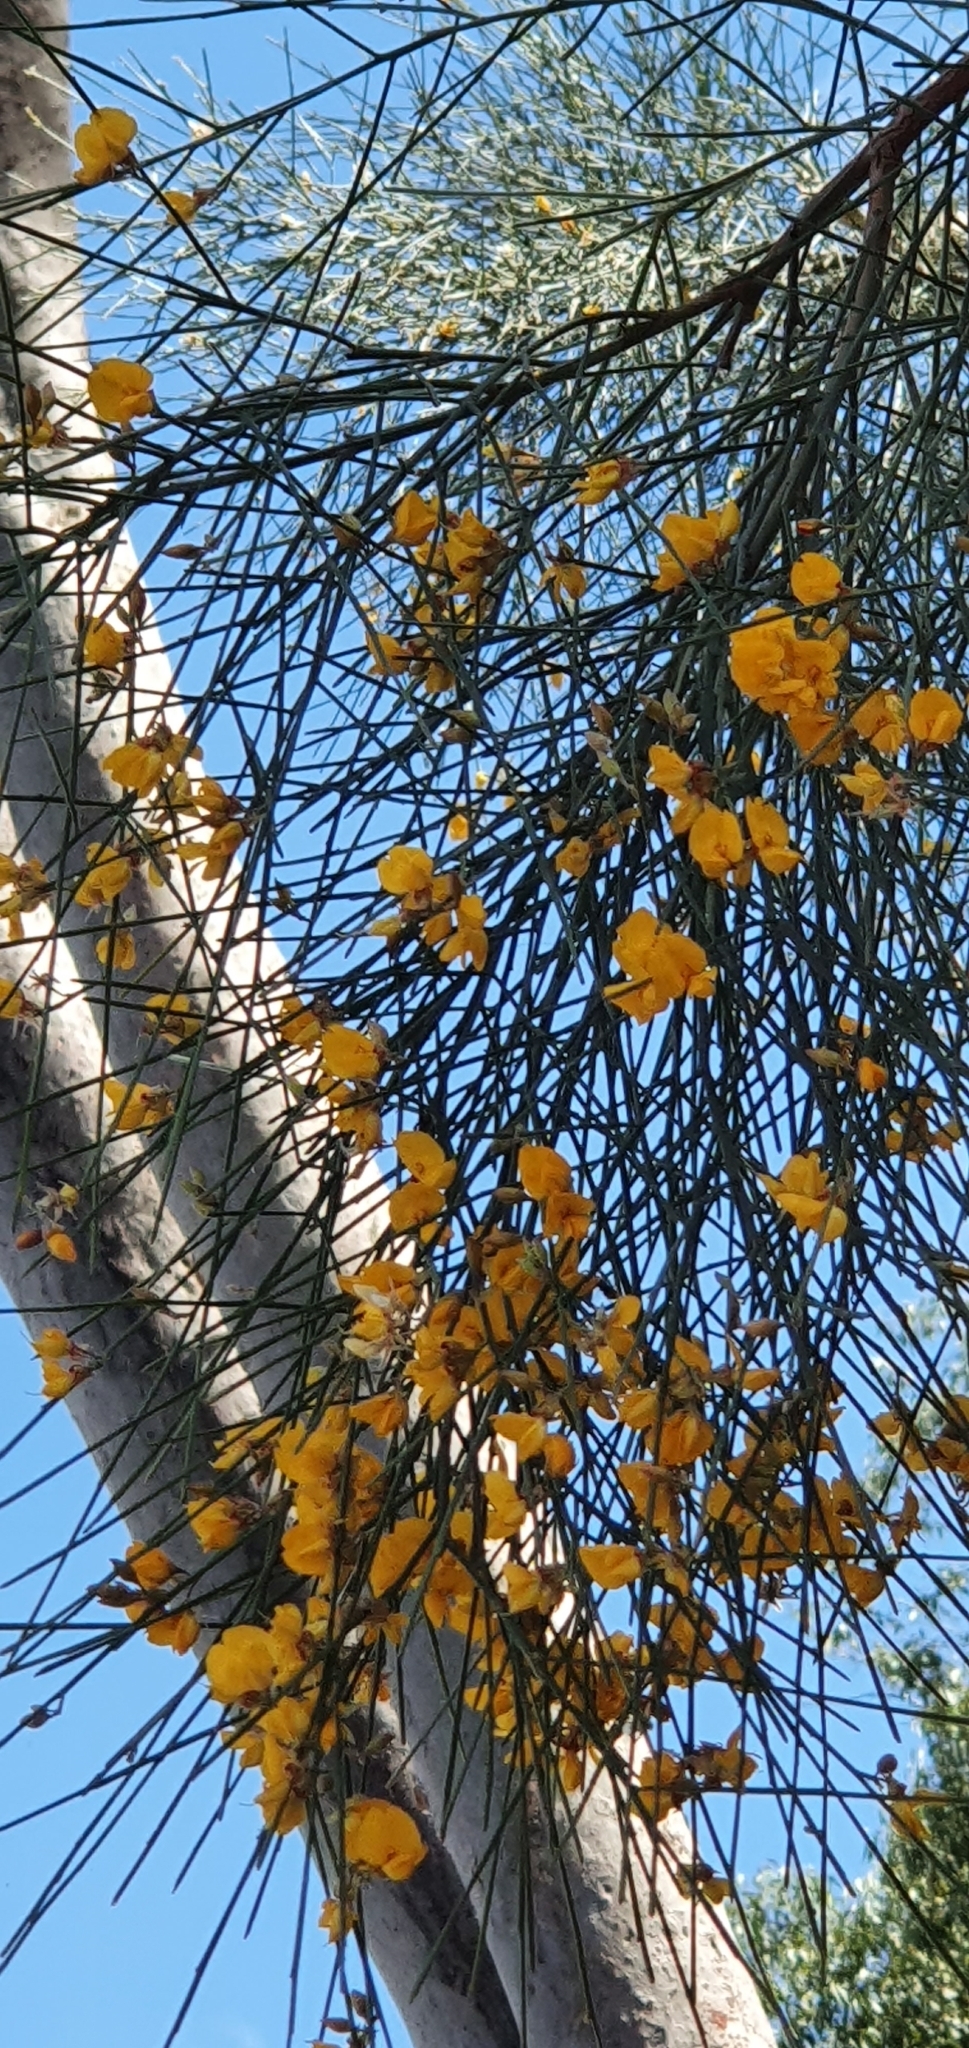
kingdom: Plantae
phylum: Tracheophyta
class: Magnoliopsida
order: Fabales
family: Fabaceae
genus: Jacksonia
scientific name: Jacksonia scoparia
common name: Dogwood
